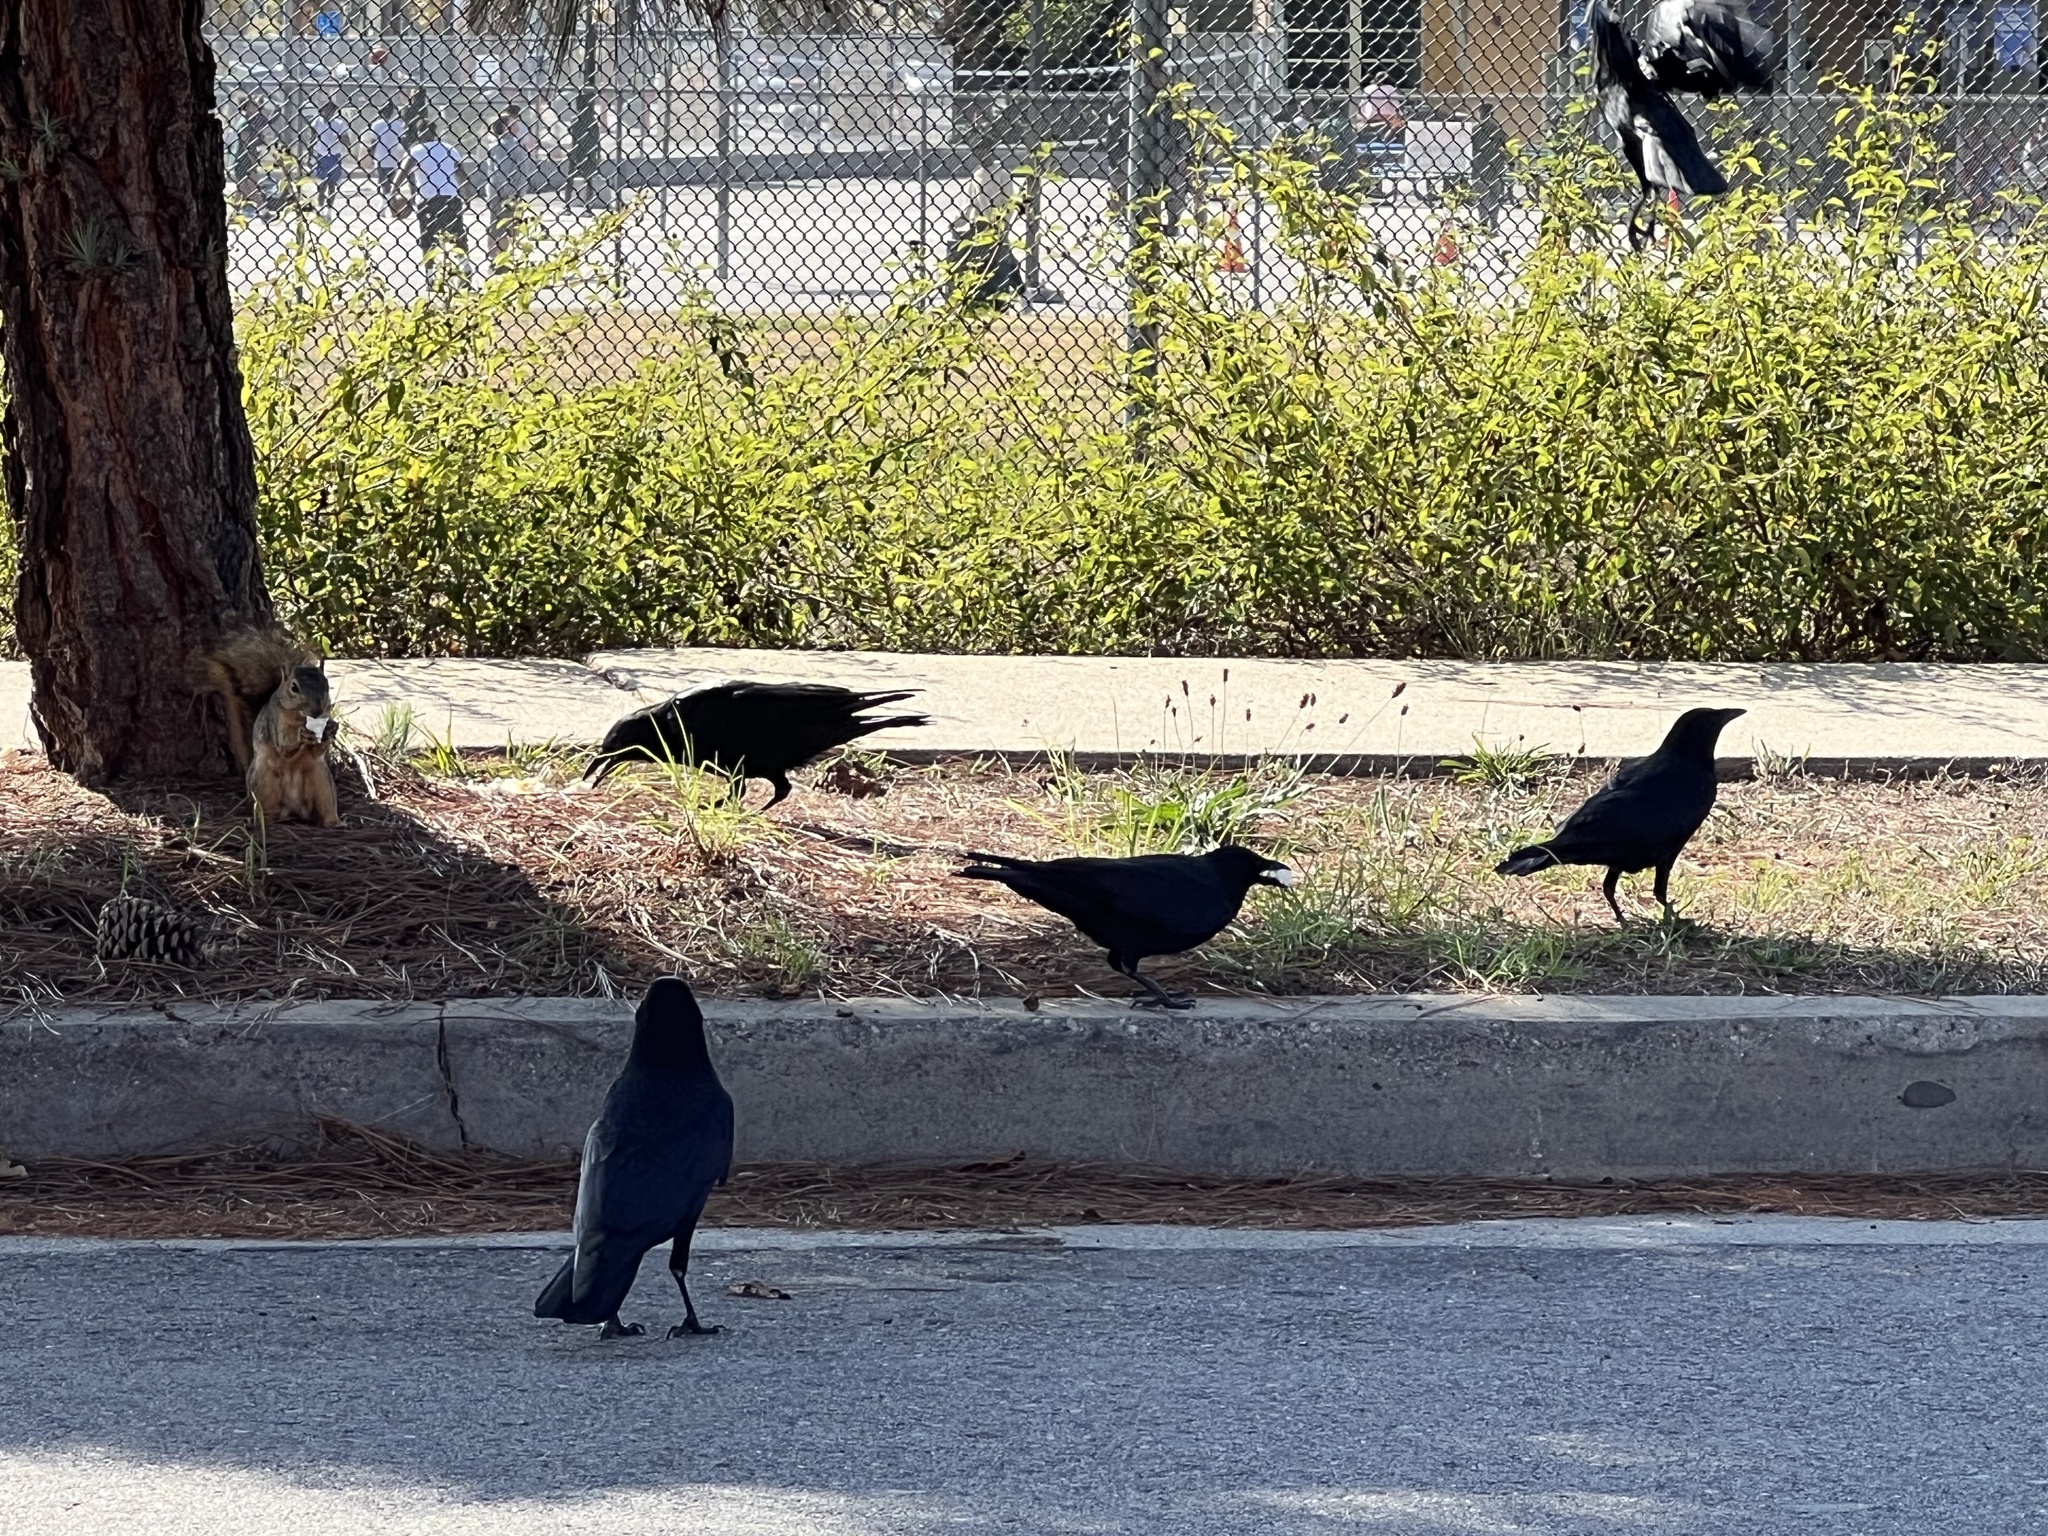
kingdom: Animalia
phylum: Chordata
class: Aves
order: Passeriformes
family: Corvidae
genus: Corvus
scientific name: Corvus brachyrhynchos
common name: American crow
